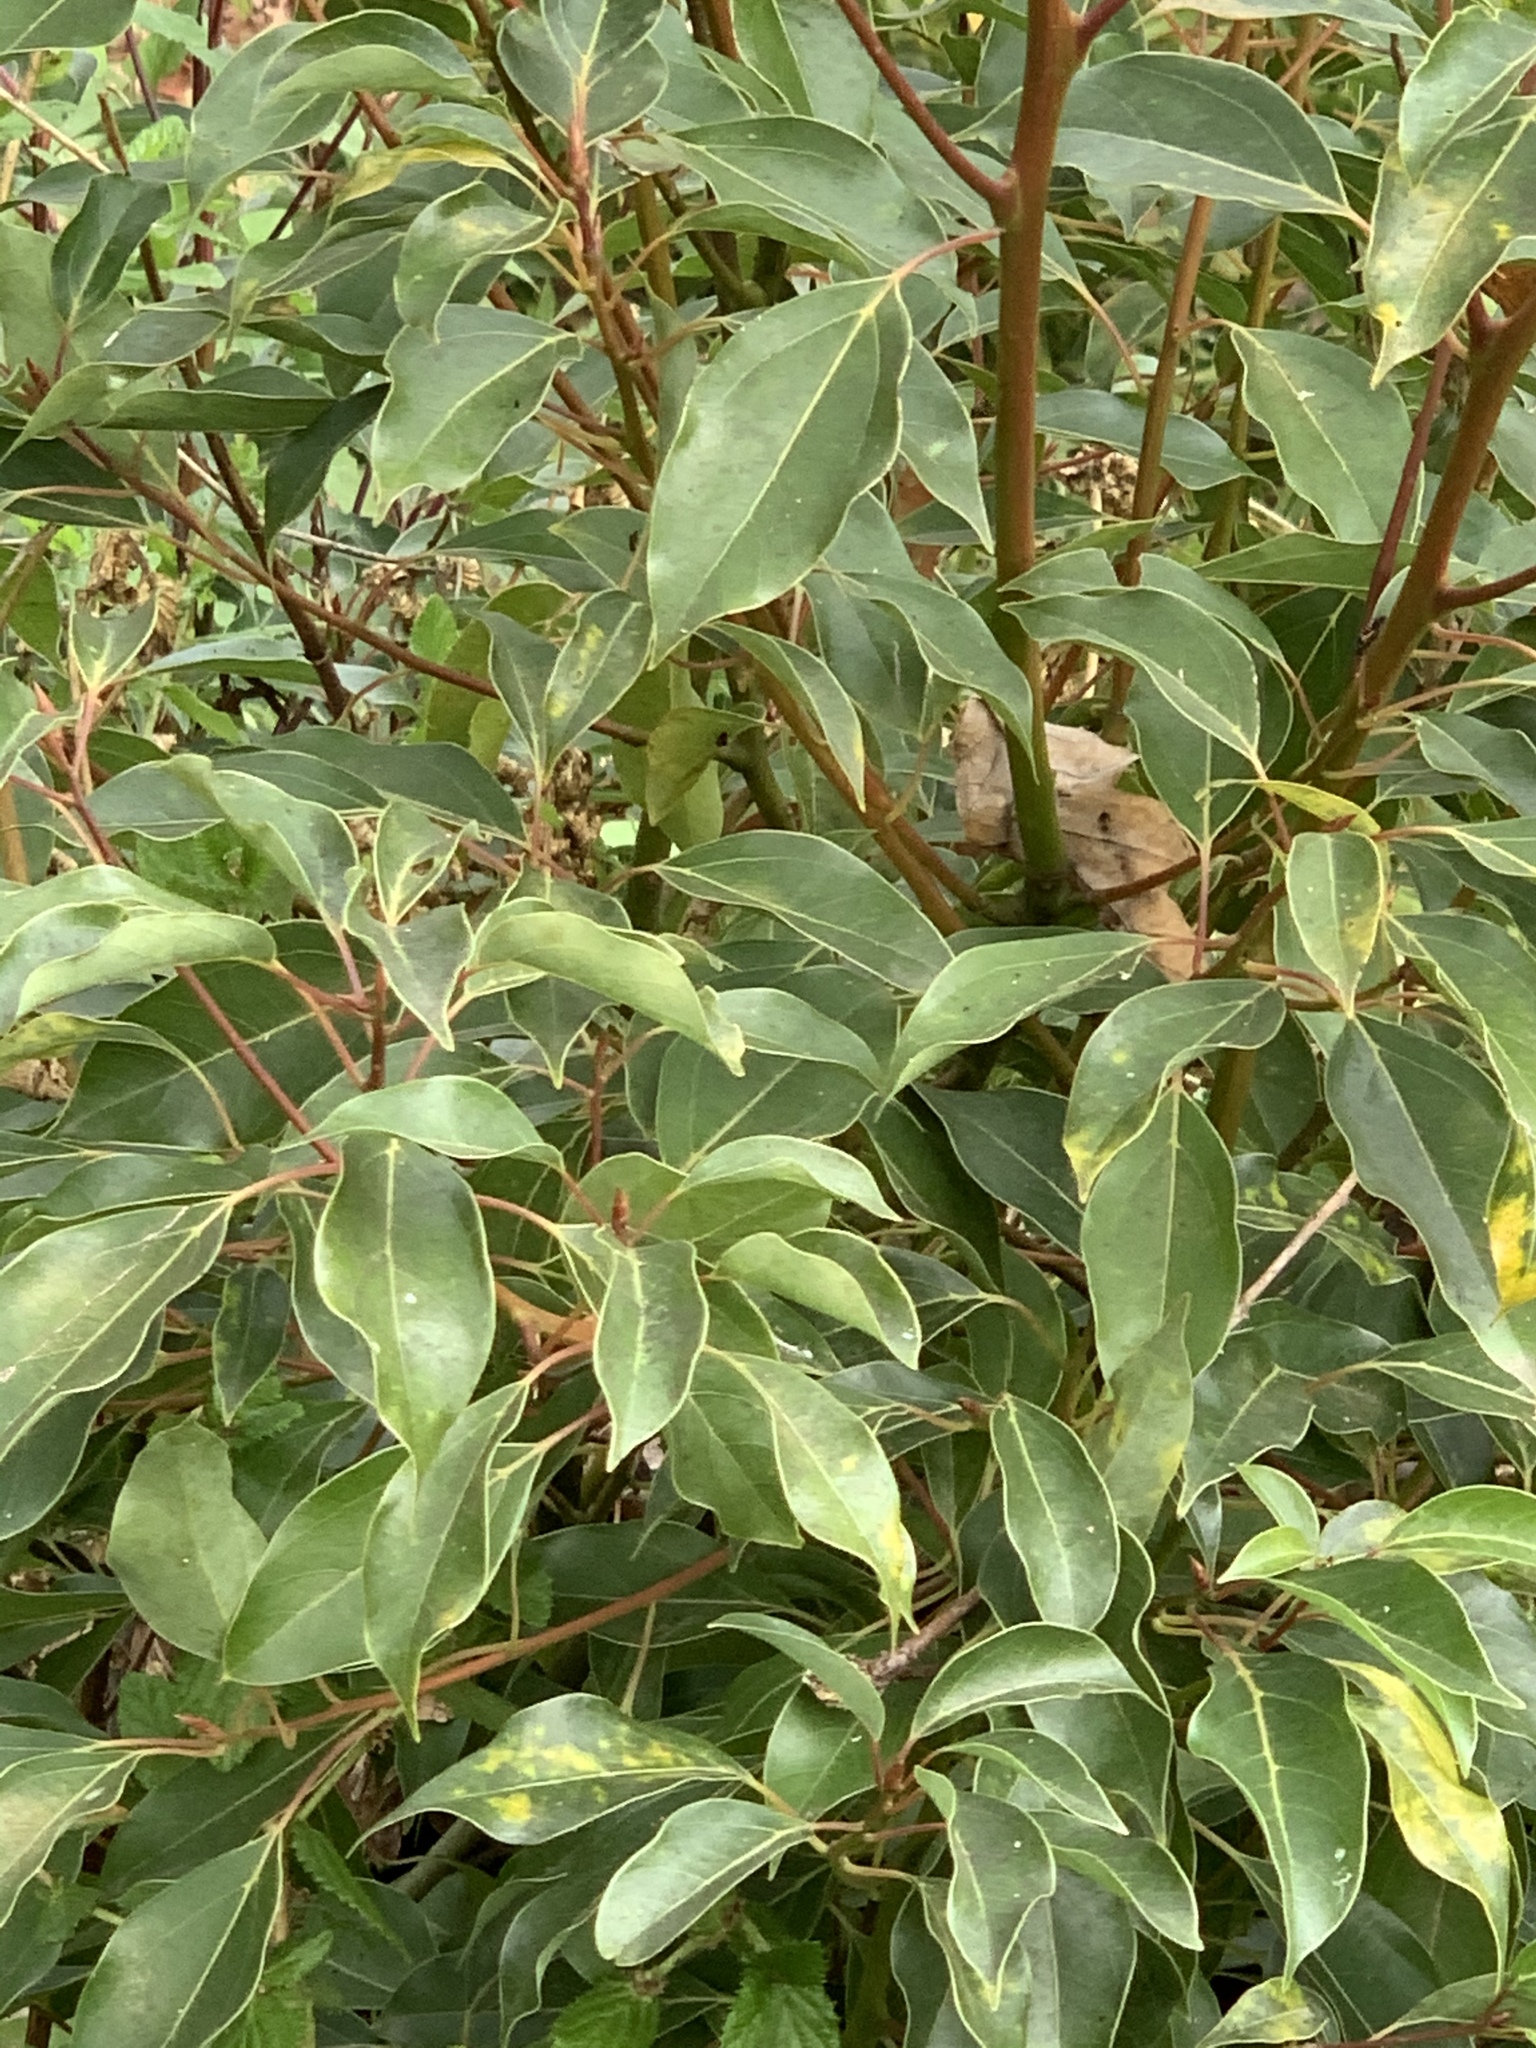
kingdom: Plantae
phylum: Tracheophyta
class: Magnoliopsida
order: Laurales
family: Lauraceae
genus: Cinnamomum
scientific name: Cinnamomum camphora
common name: Camphortree
